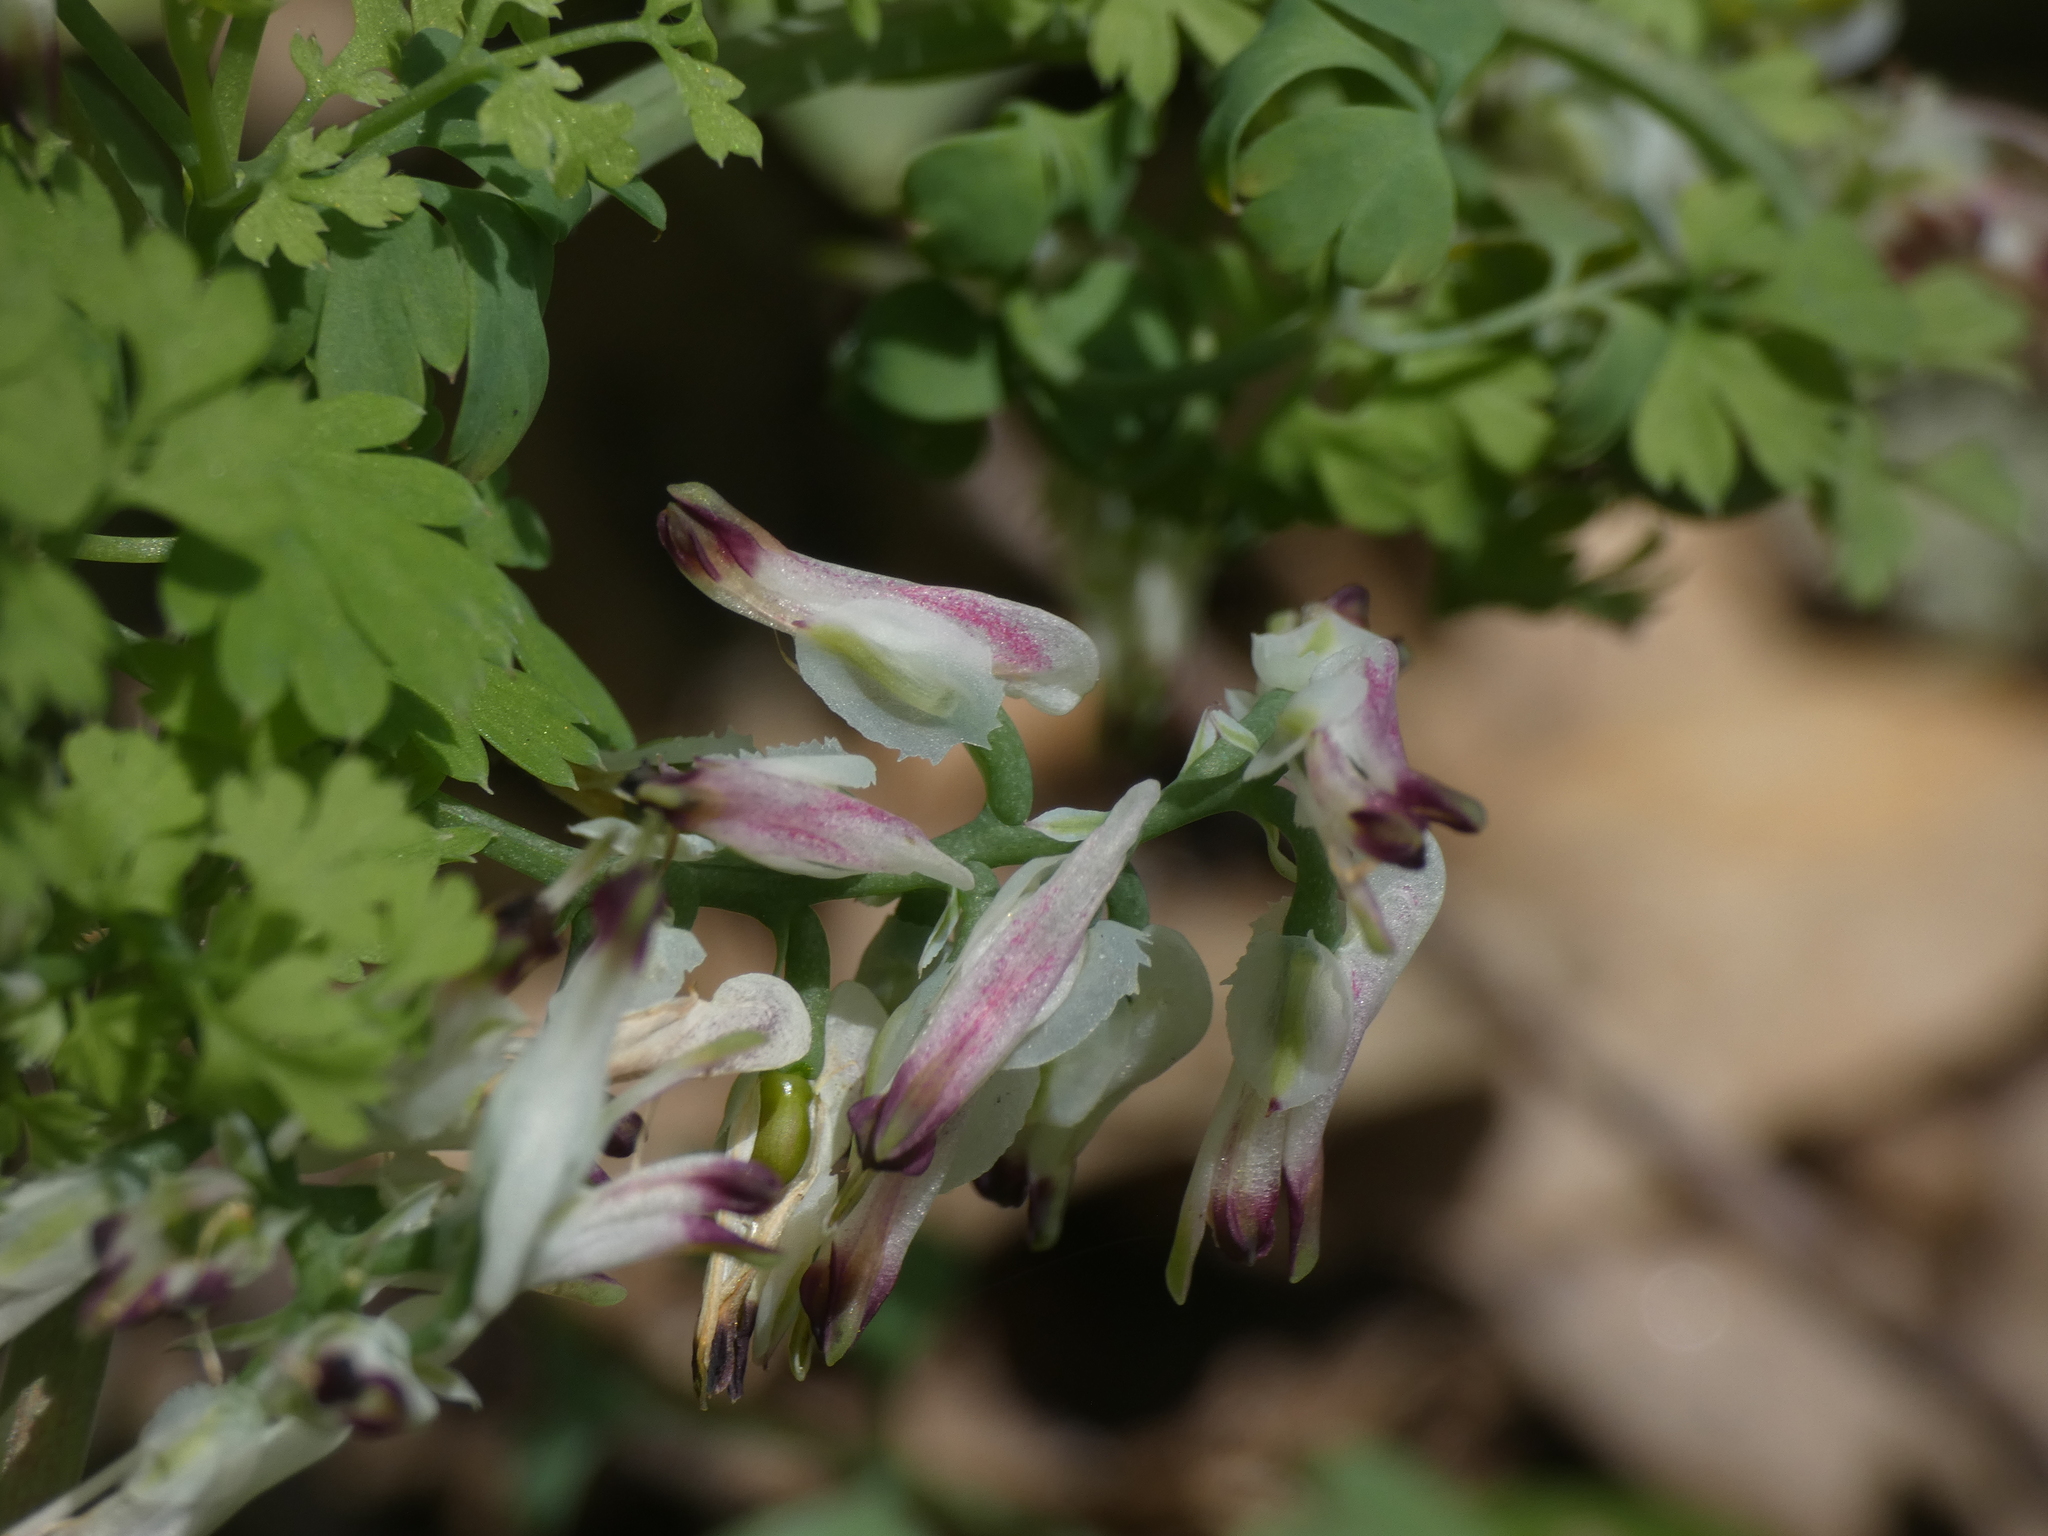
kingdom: Plantae
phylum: Tracheophyta
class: Magnoliopsida
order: Ranunculales
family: Papaveraceae
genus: Fumaria
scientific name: Fumaria capreolata
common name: White ramping-fumitory
